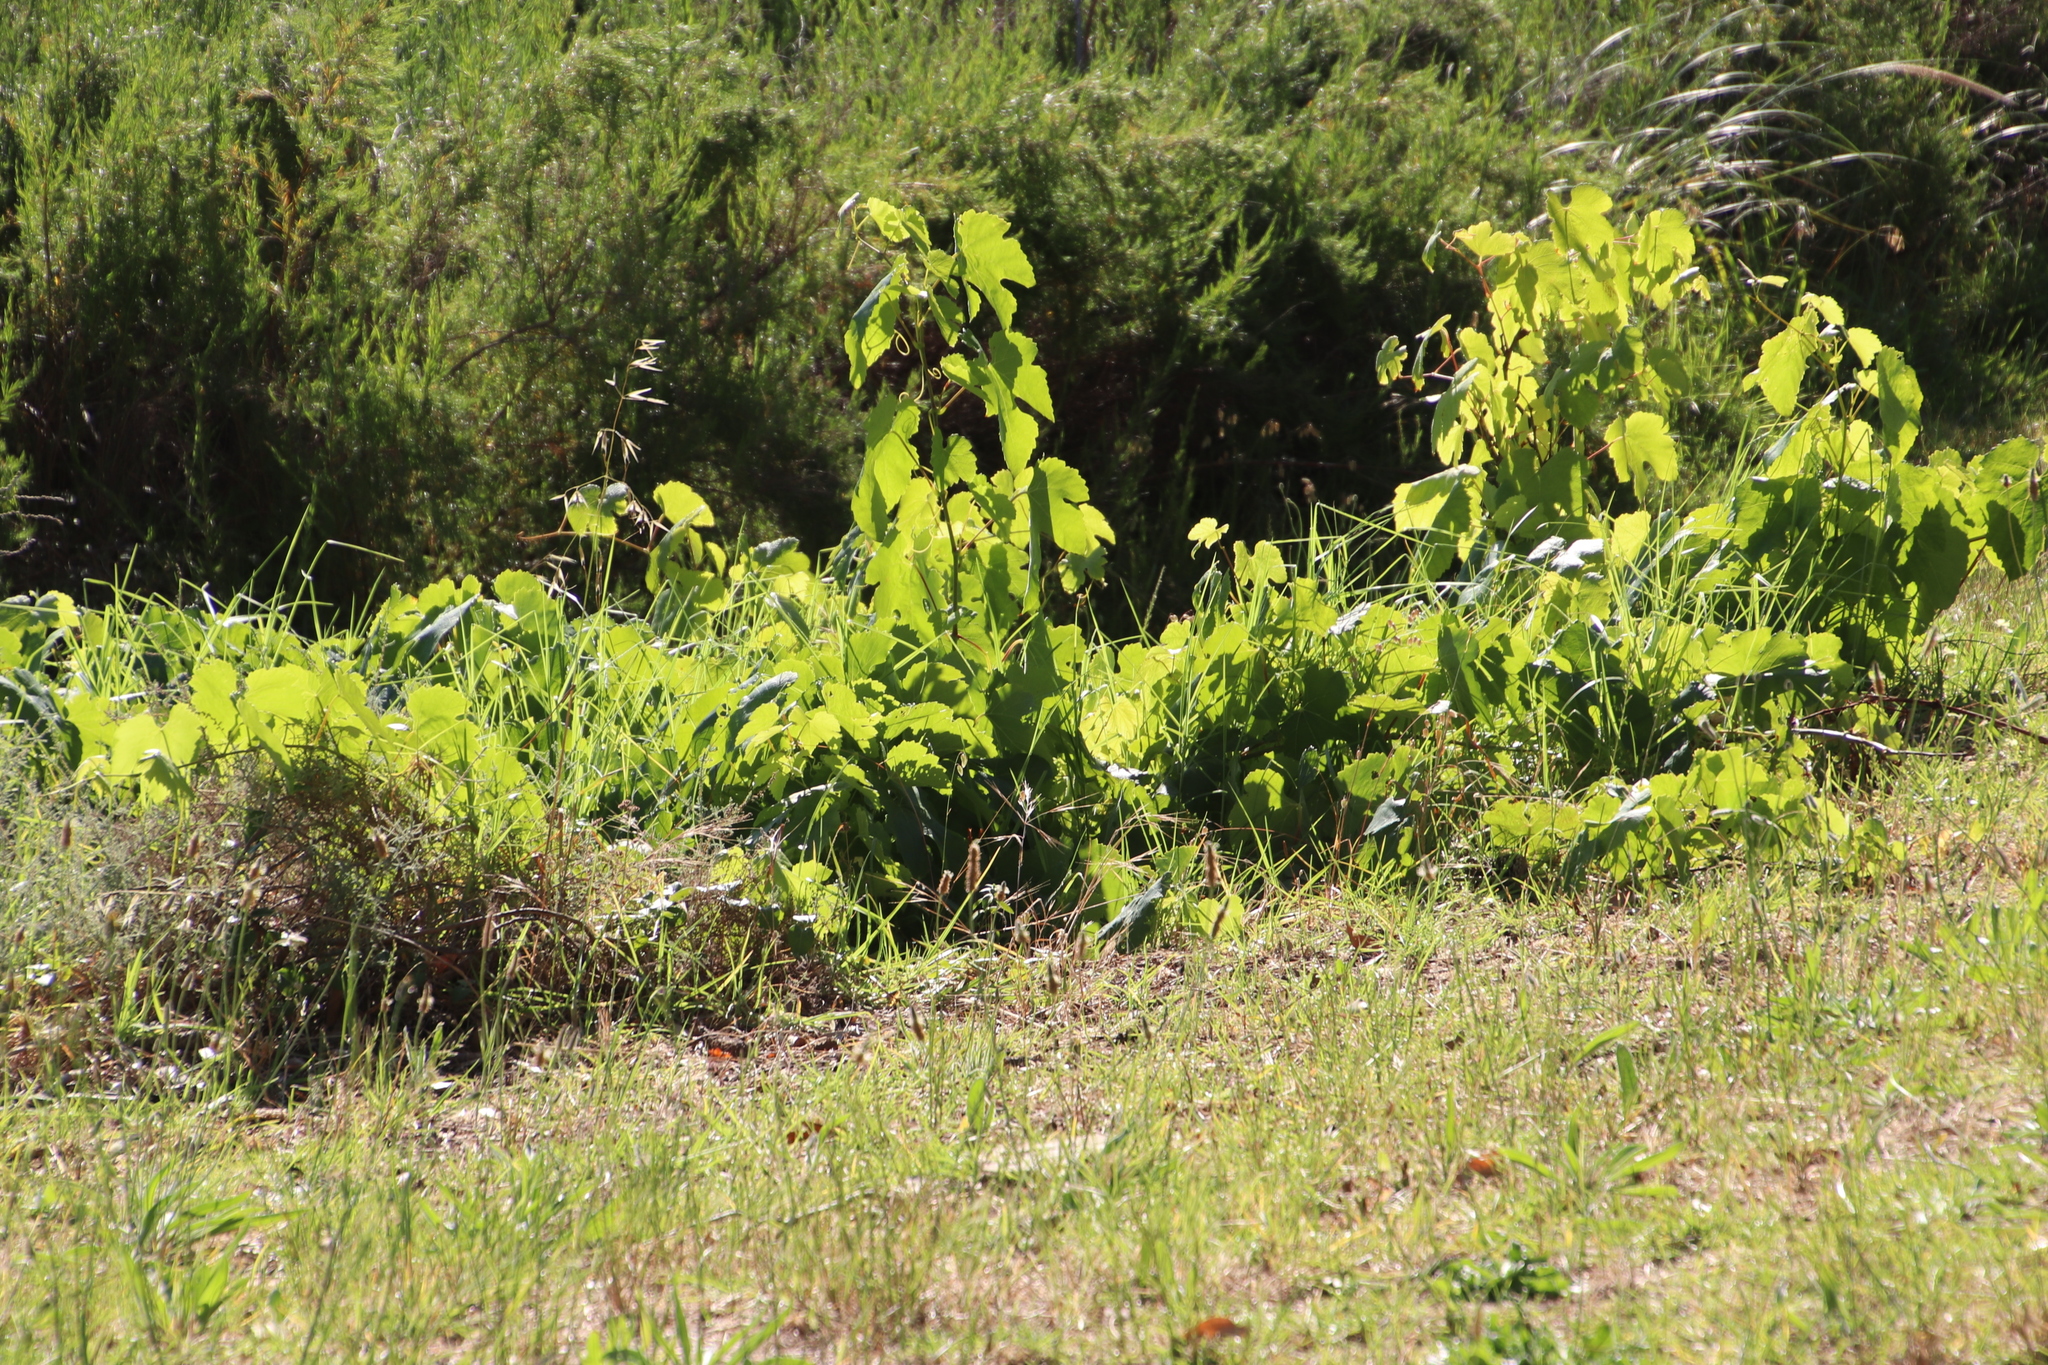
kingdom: Plantae
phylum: Tracheophyta
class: Magnoliopsida
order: Vitales
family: Vitaceae
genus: Vitis
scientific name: Vitis vinifera
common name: Grape-vine
